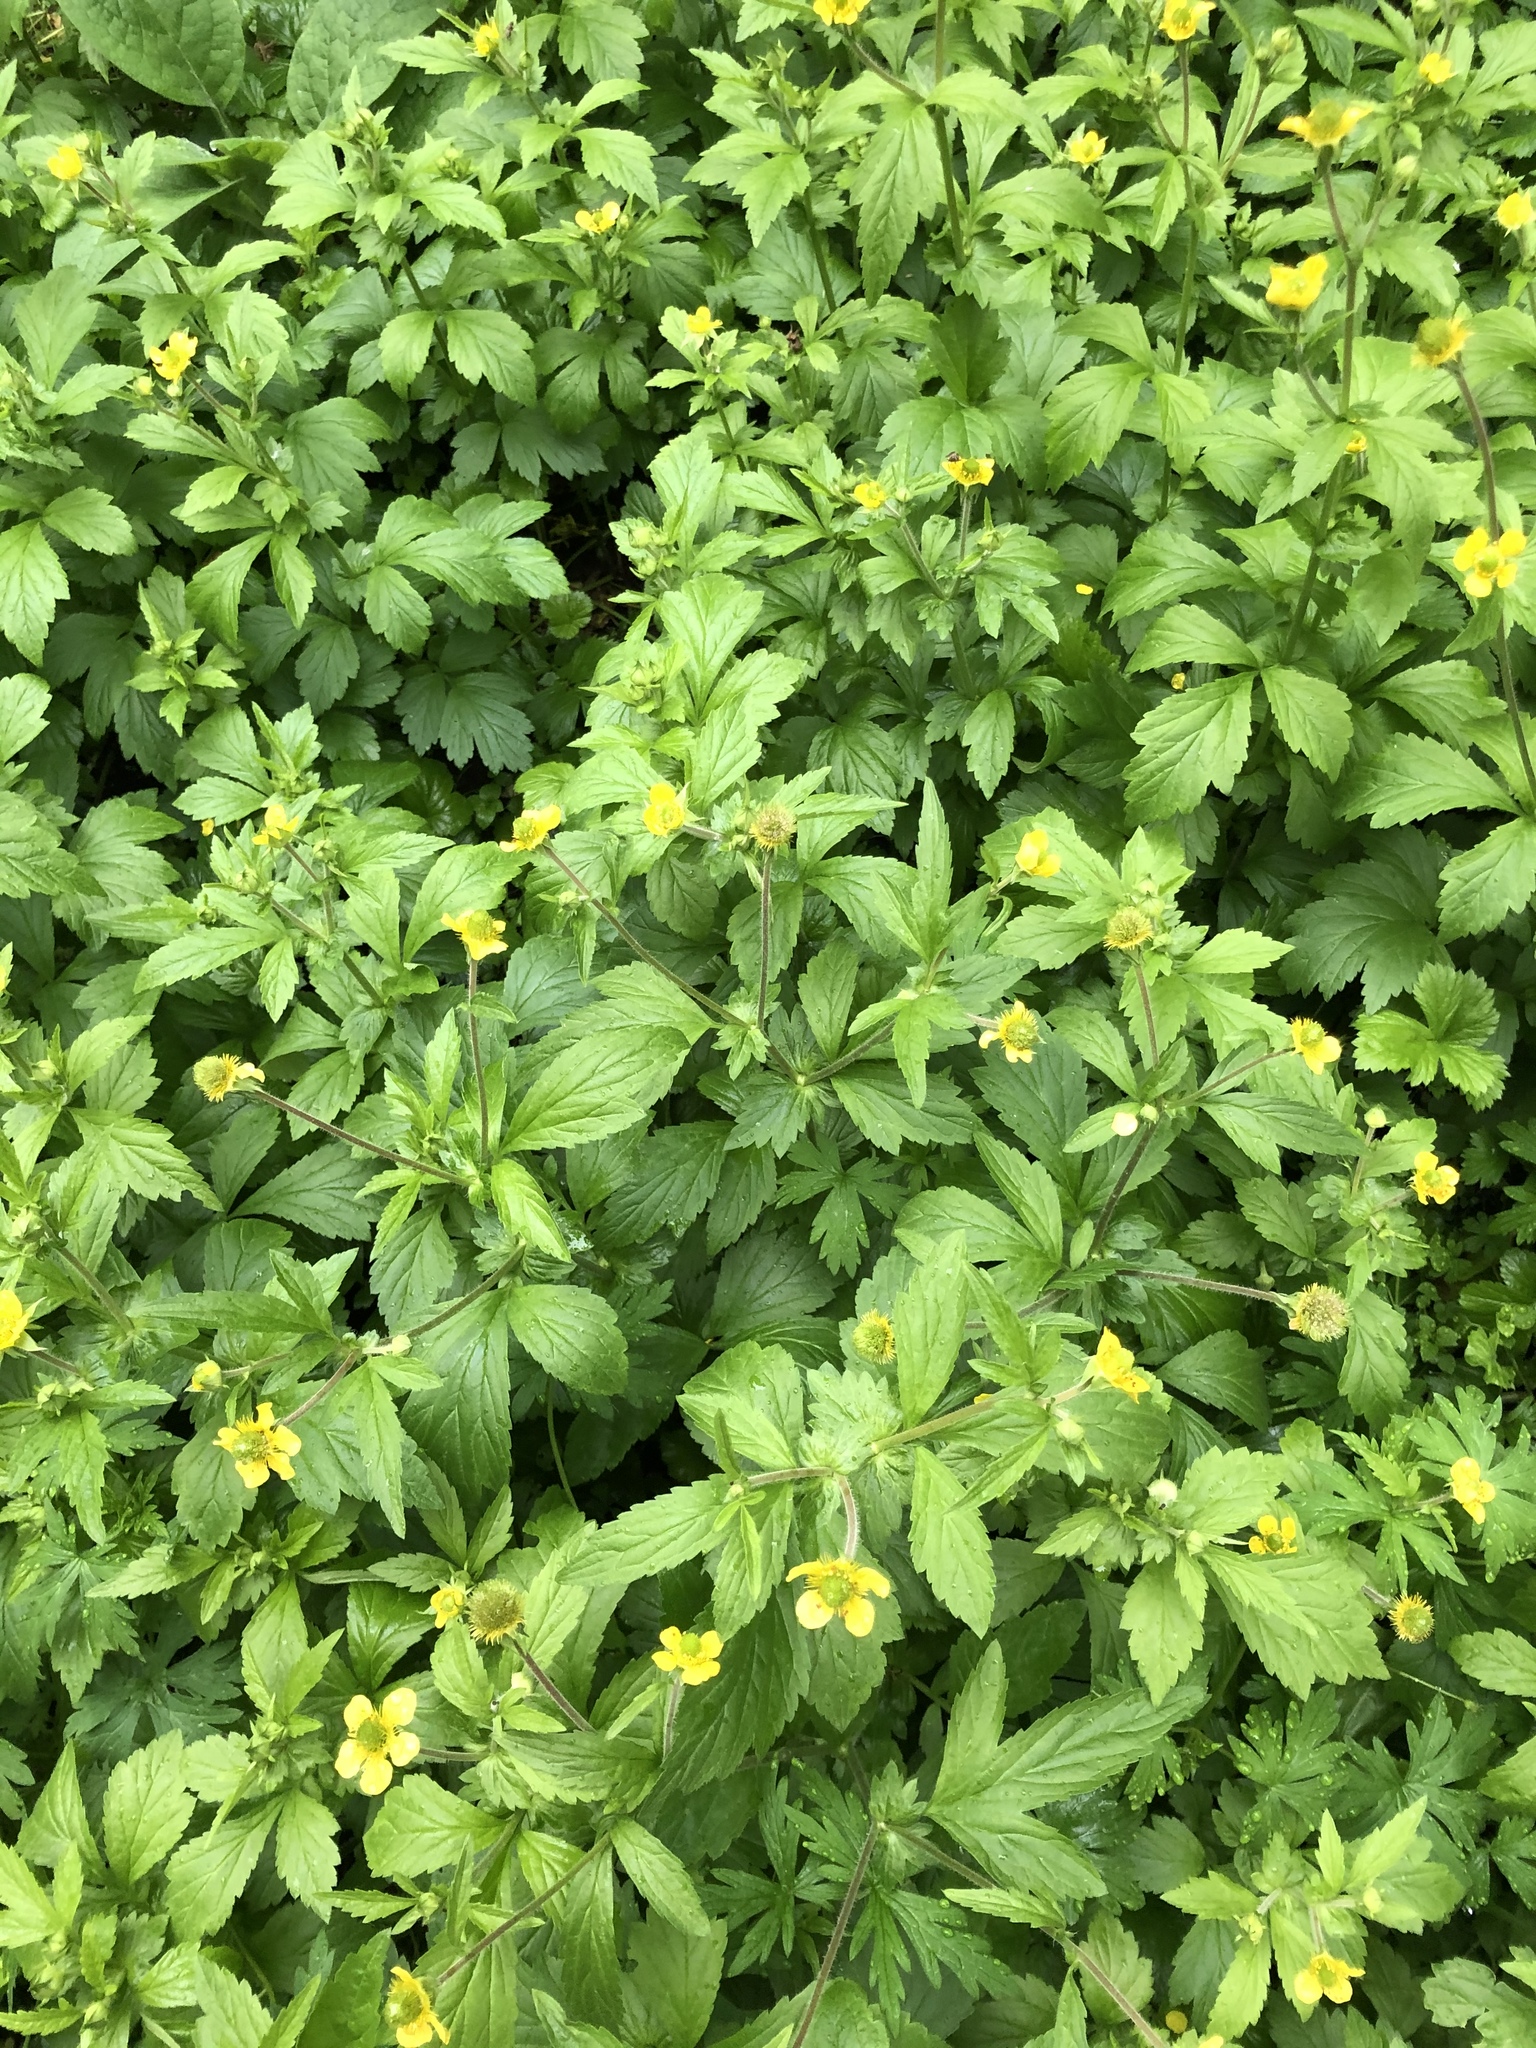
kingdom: Plantae
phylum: Tracheophyta
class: Magnoliopsida
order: Rosales
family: Rosaceae
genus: Geum
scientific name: Geum aleppicum
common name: Yellow avens
